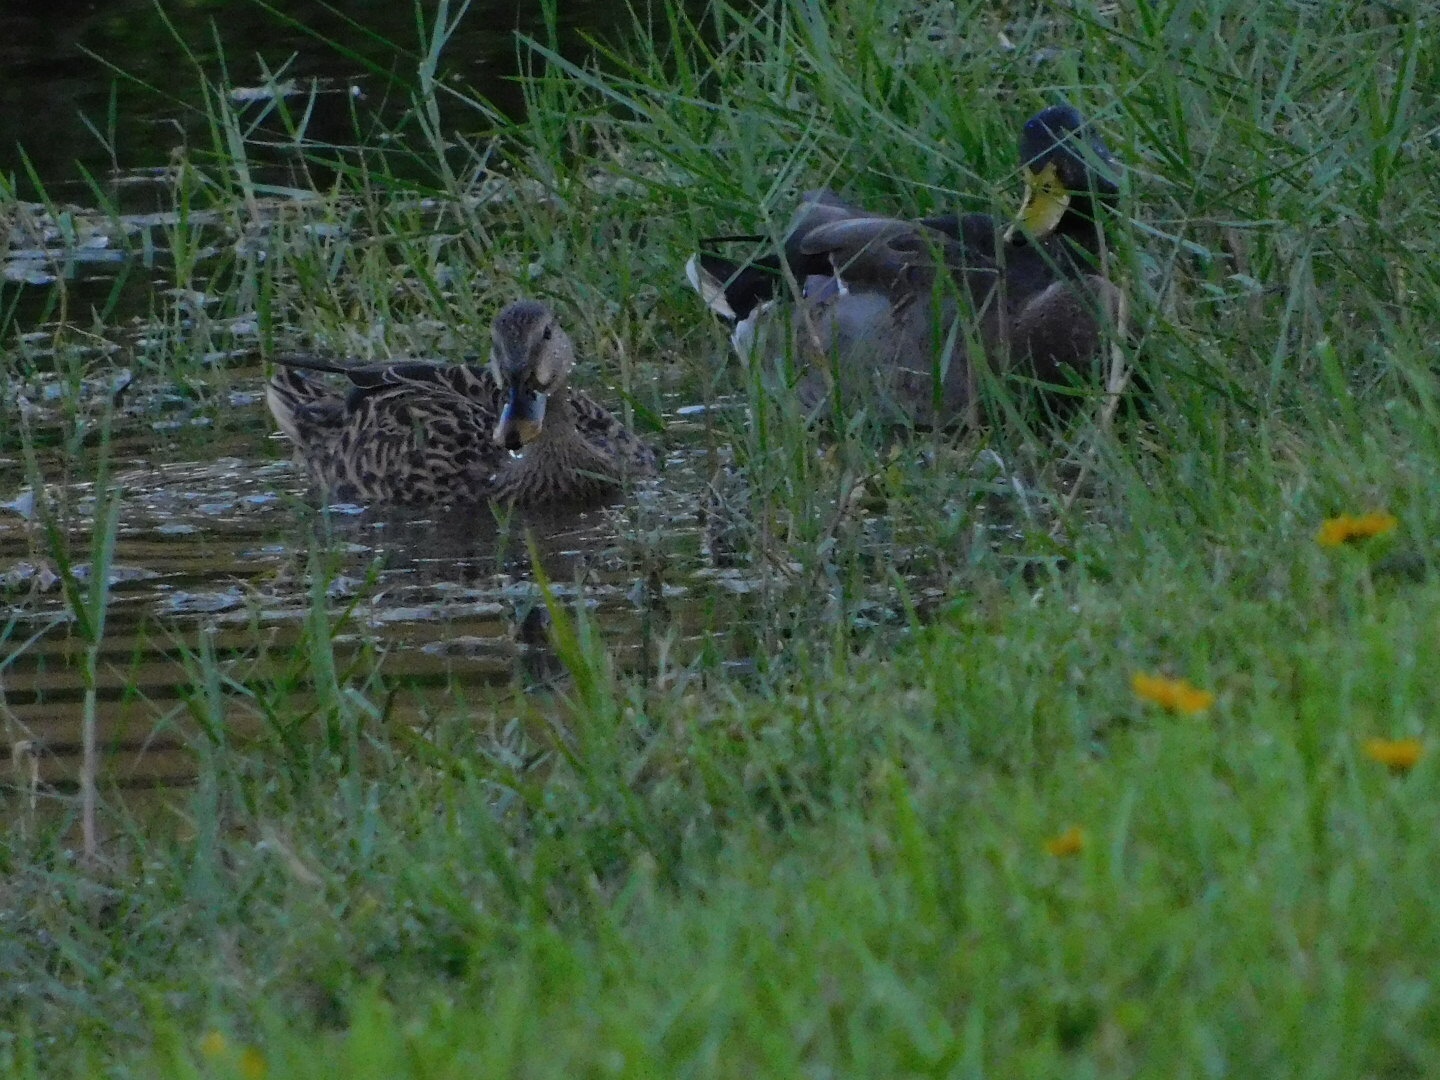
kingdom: Animalia
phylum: Chordata
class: Aves
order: Anseriformes
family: Anatidae
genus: Anas
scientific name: Anas platyrhynchos
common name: Mallard
